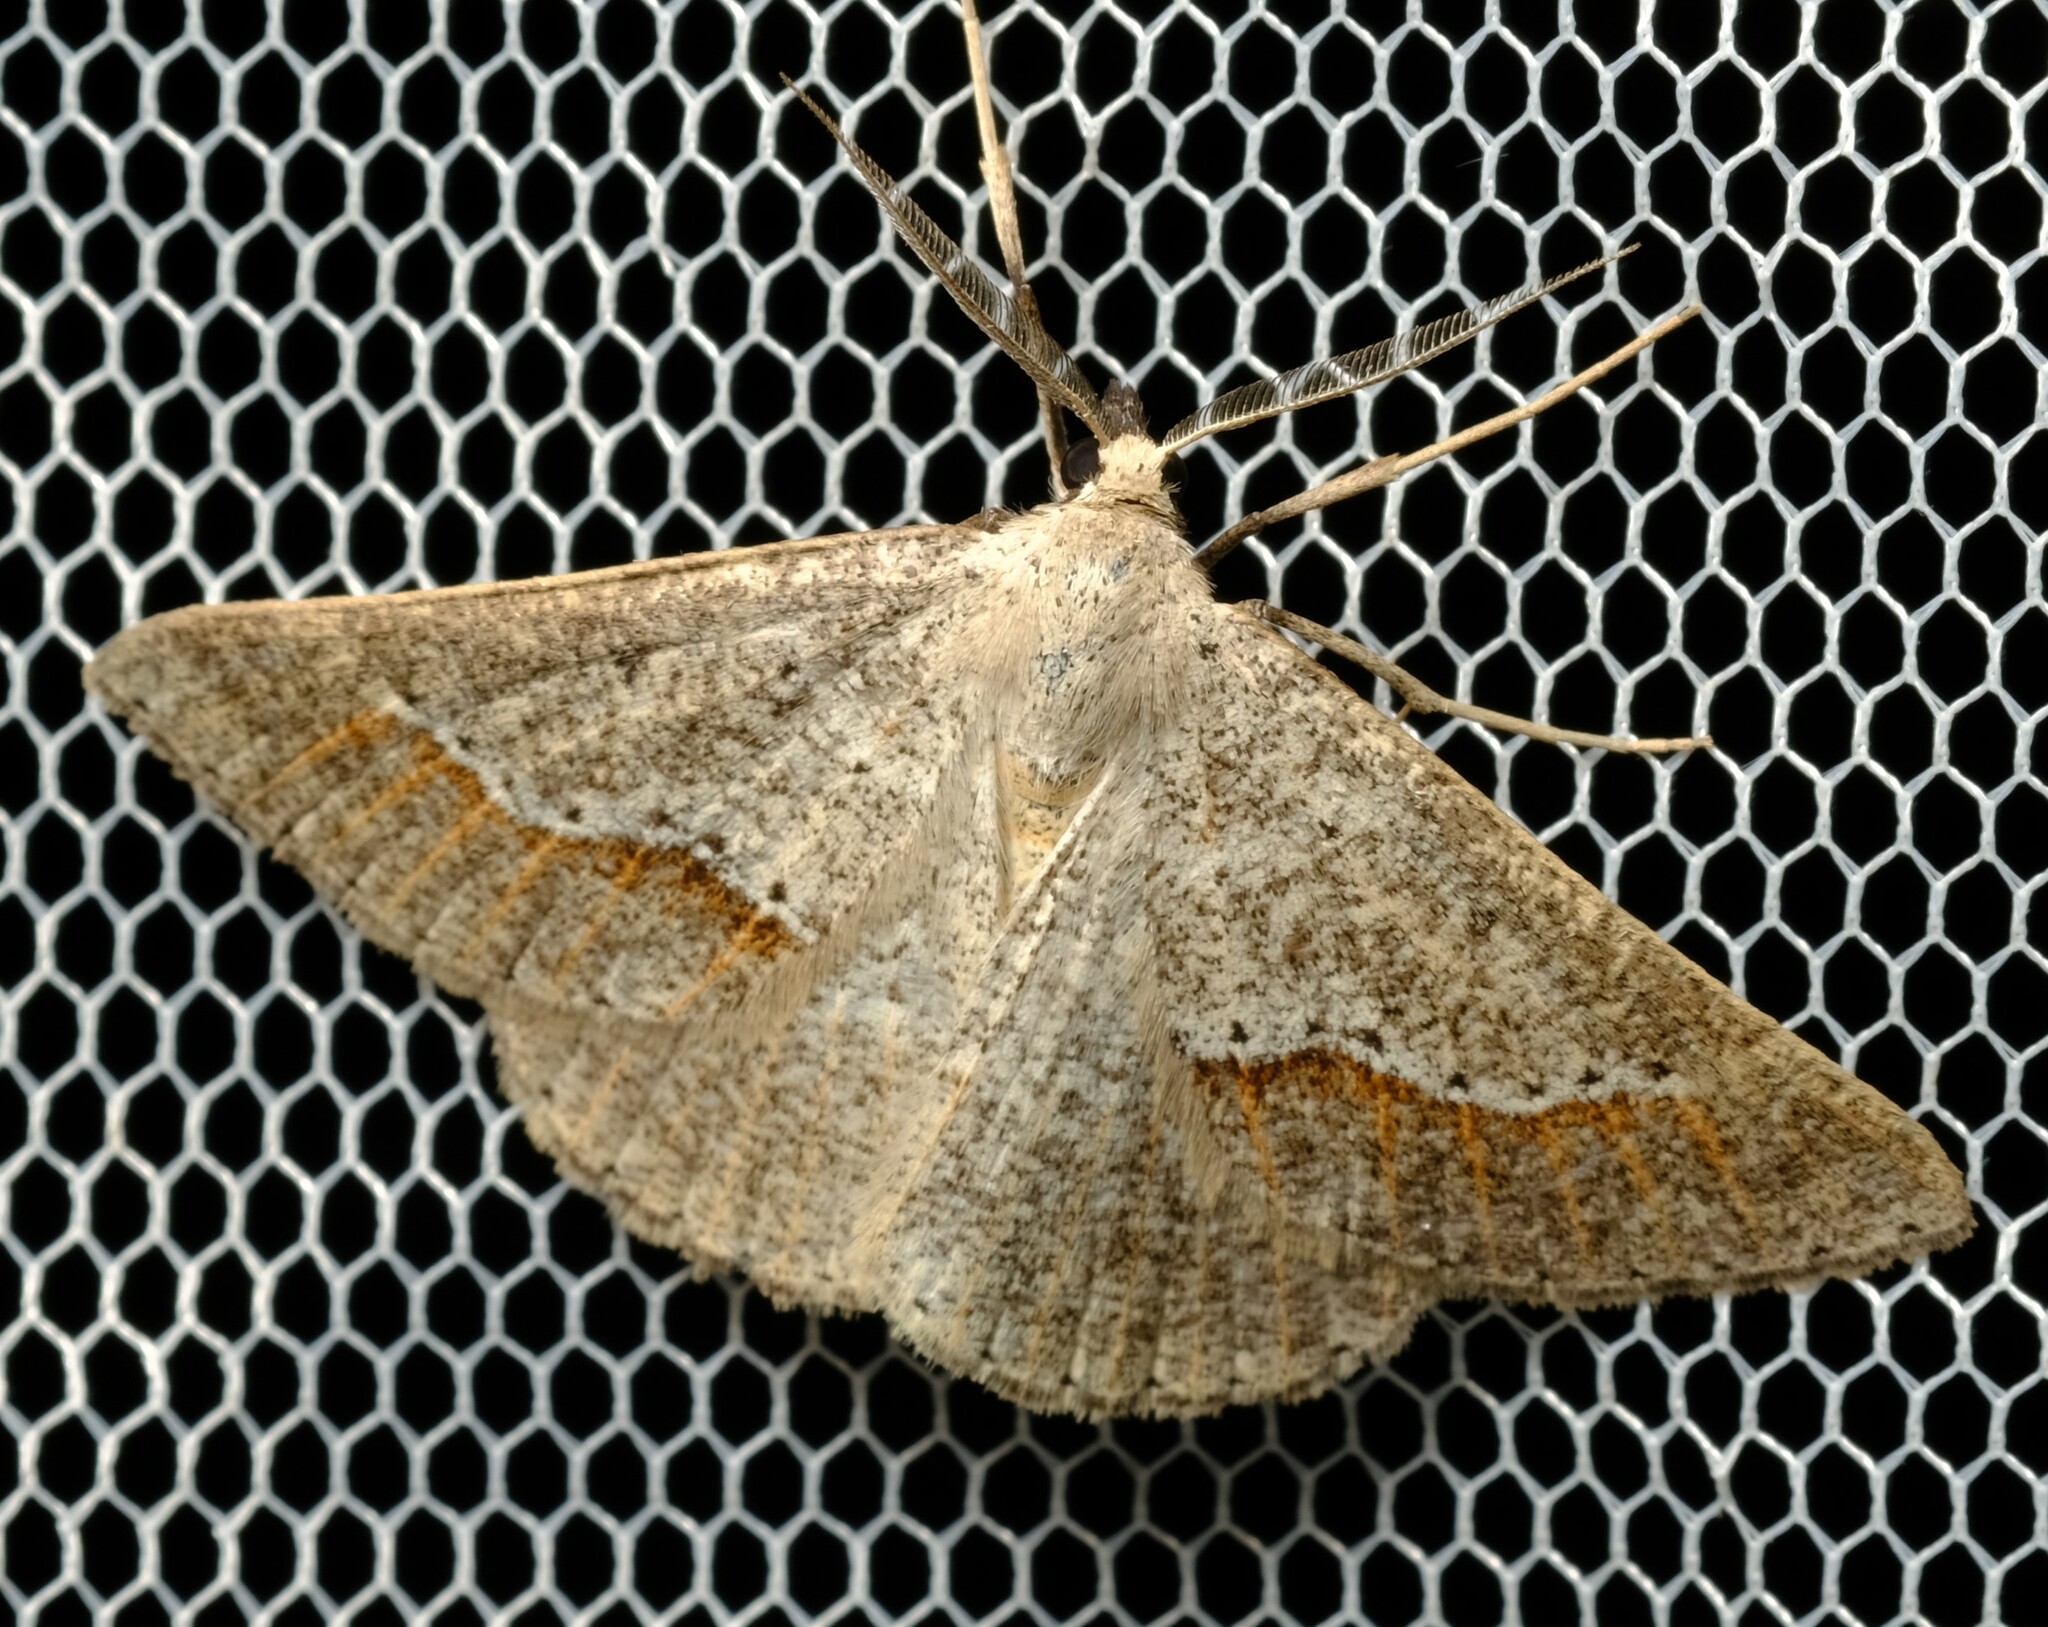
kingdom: Animalia
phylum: Arthropoda
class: Insecta
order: Lepidoptera
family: Geometridae
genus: Nearcha
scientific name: Nearcha dasyzona
